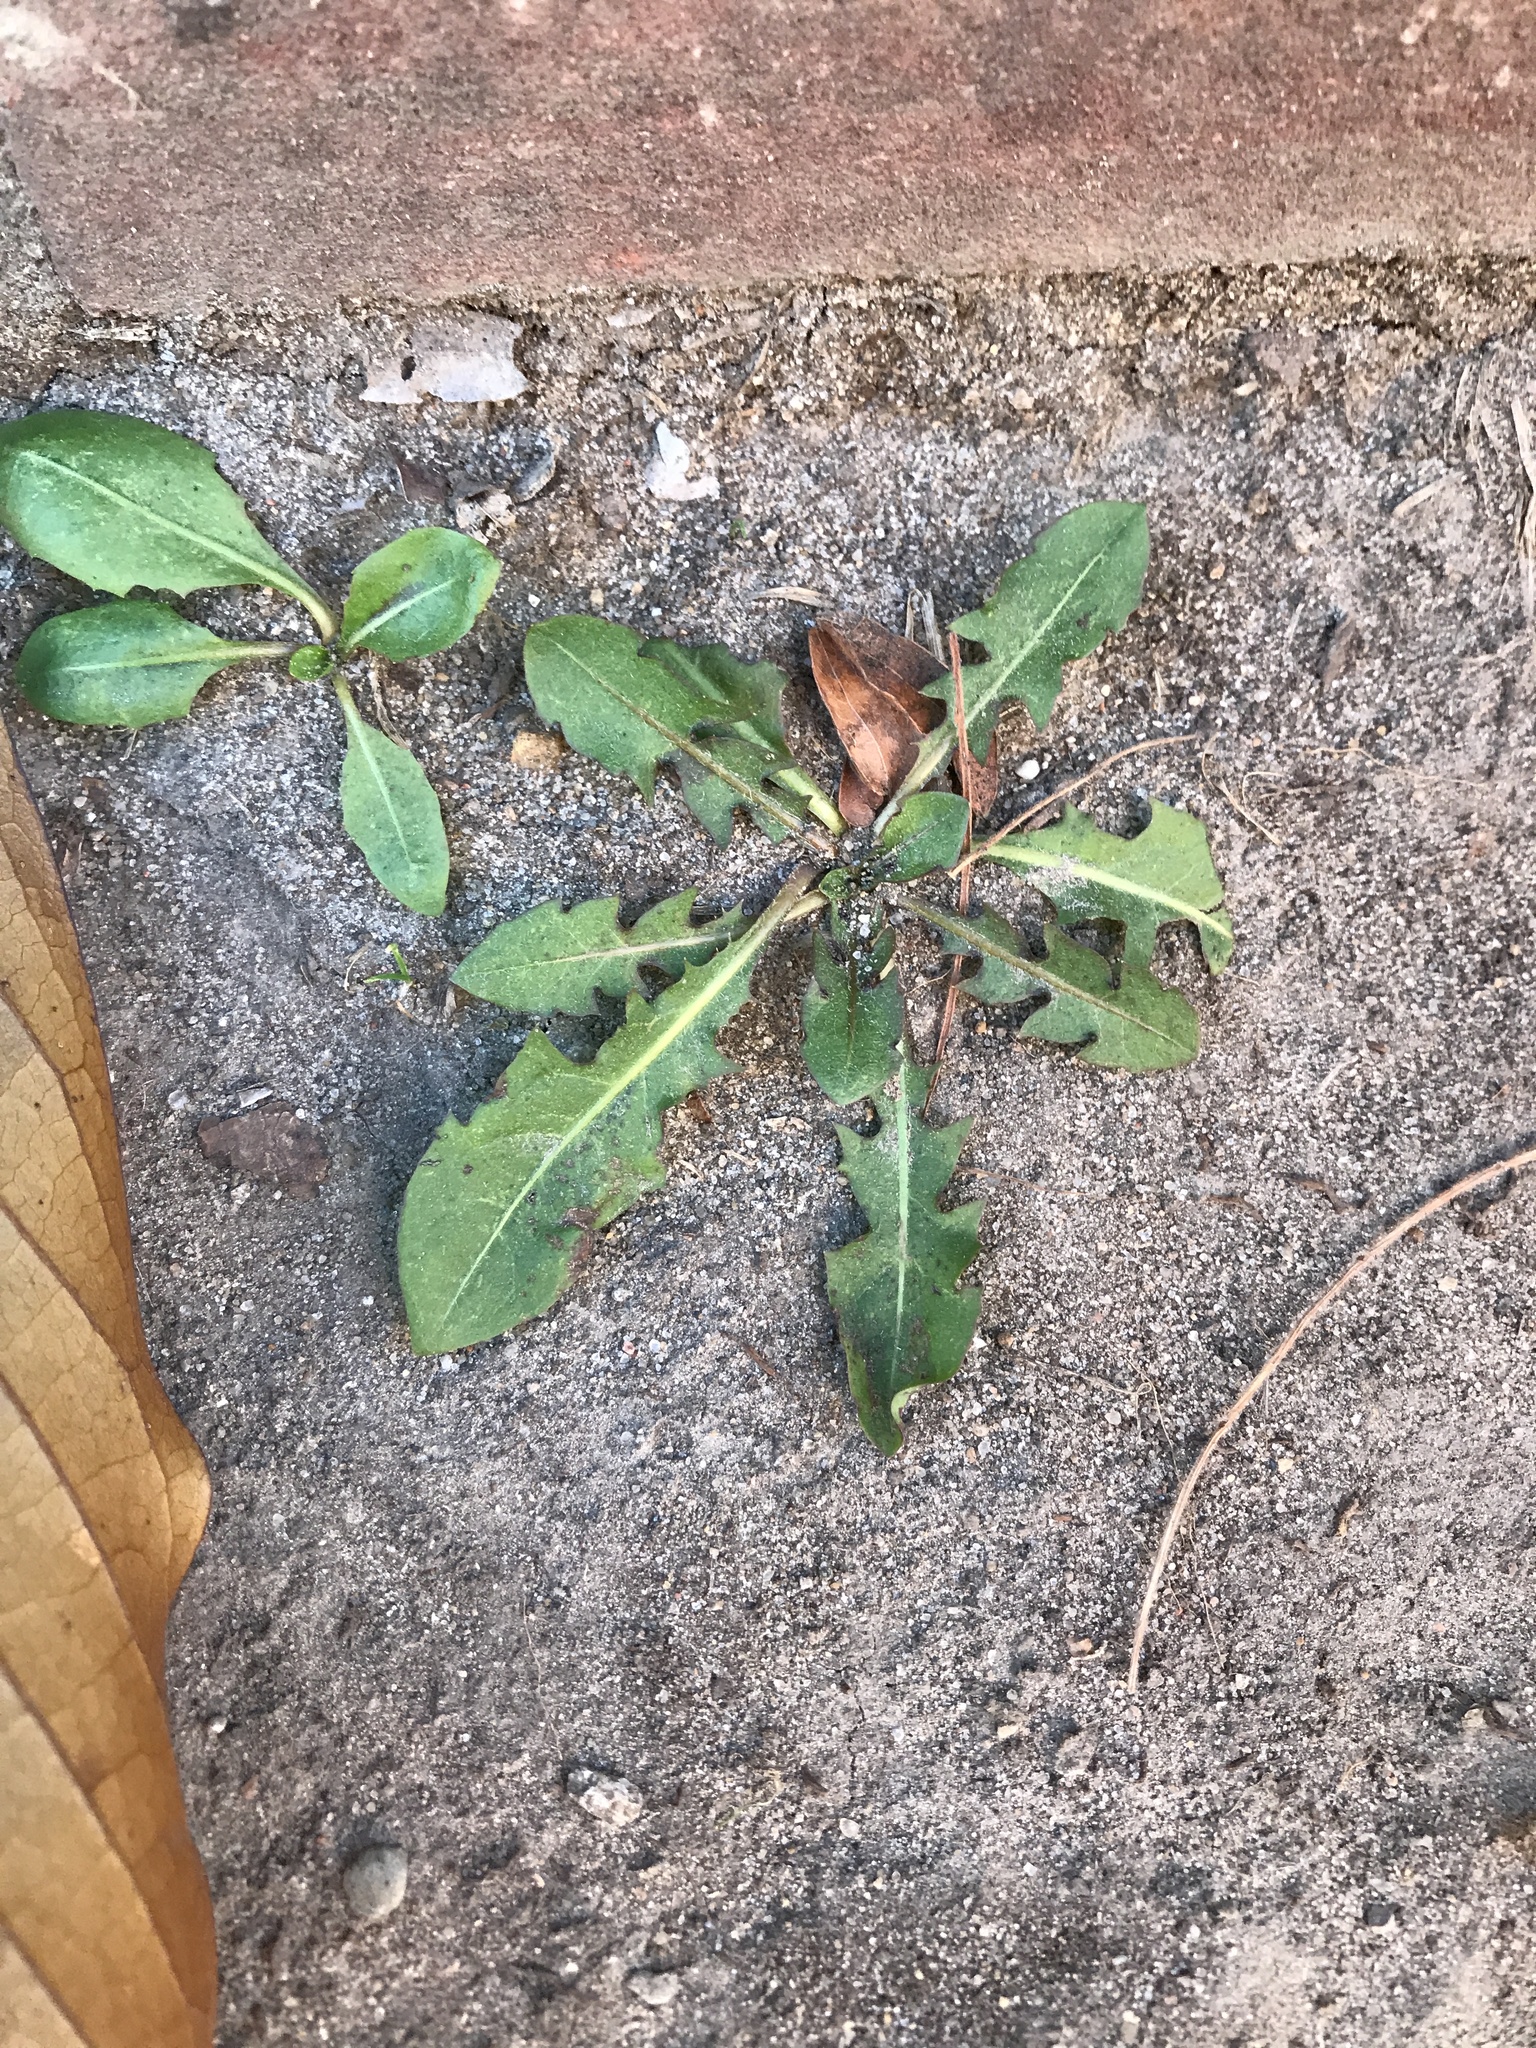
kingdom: Plantae
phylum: Tracheophyta
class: Magnoliopsida
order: Asterales
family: Asteraceae
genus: Taraxacum
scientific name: Taraxacum officinale
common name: Common dandelion
